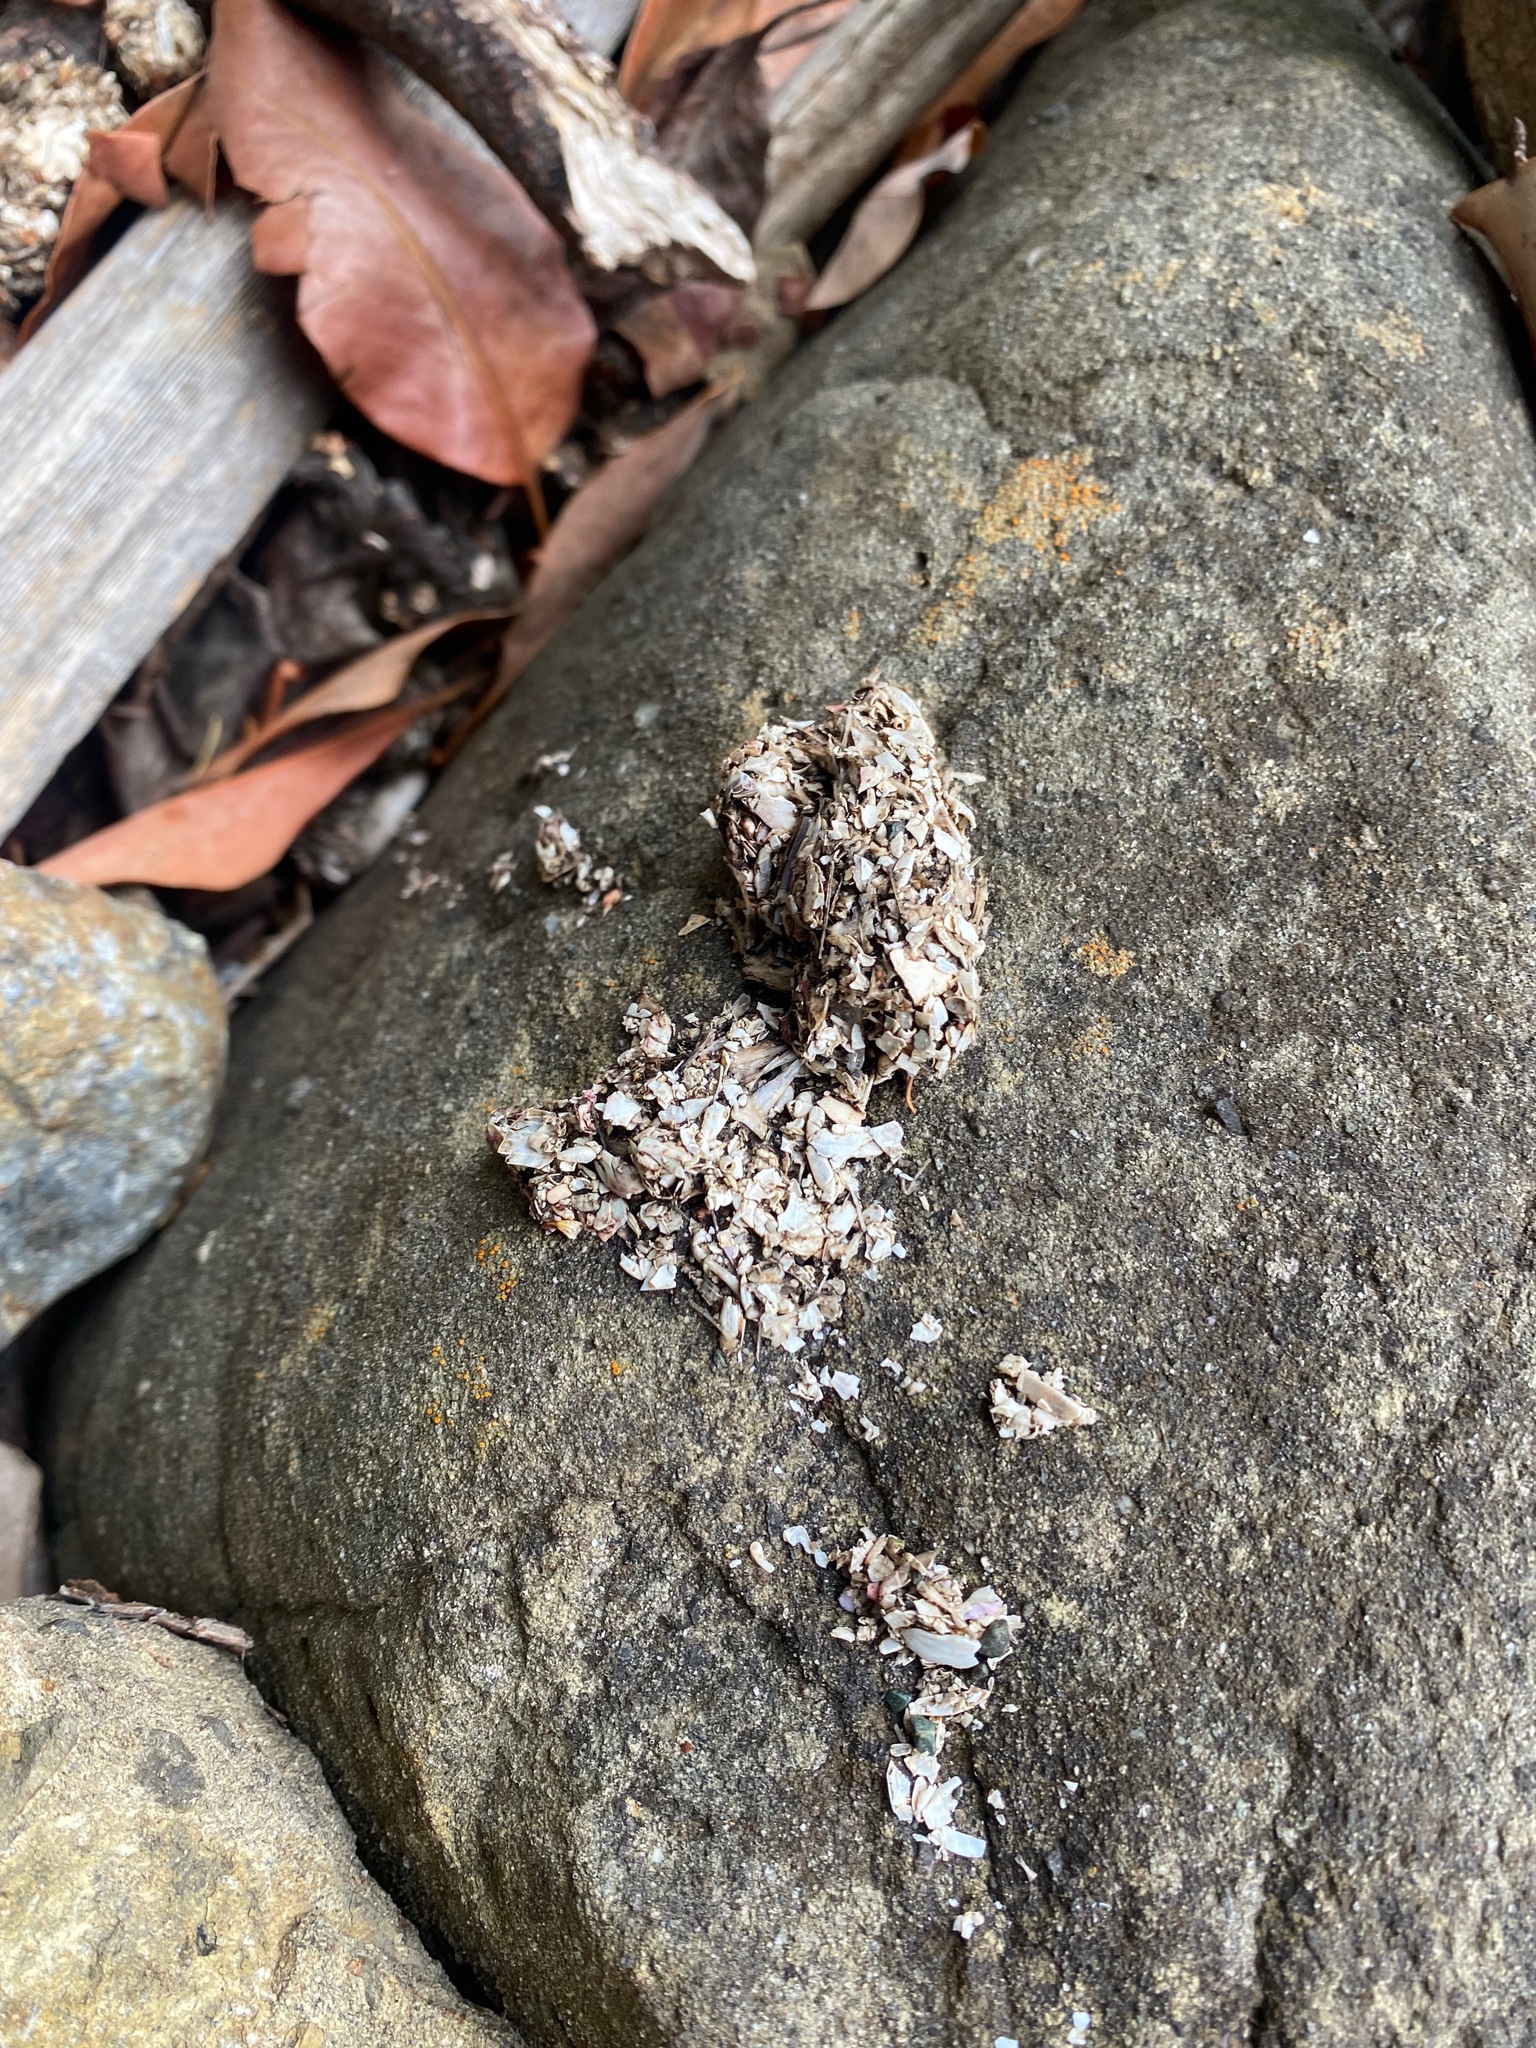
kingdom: Animalia
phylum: Chordata
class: Mammalia
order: Carnivora
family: Mustelidae
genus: Lontra
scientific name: Lontra canadensis
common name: North american river otter
